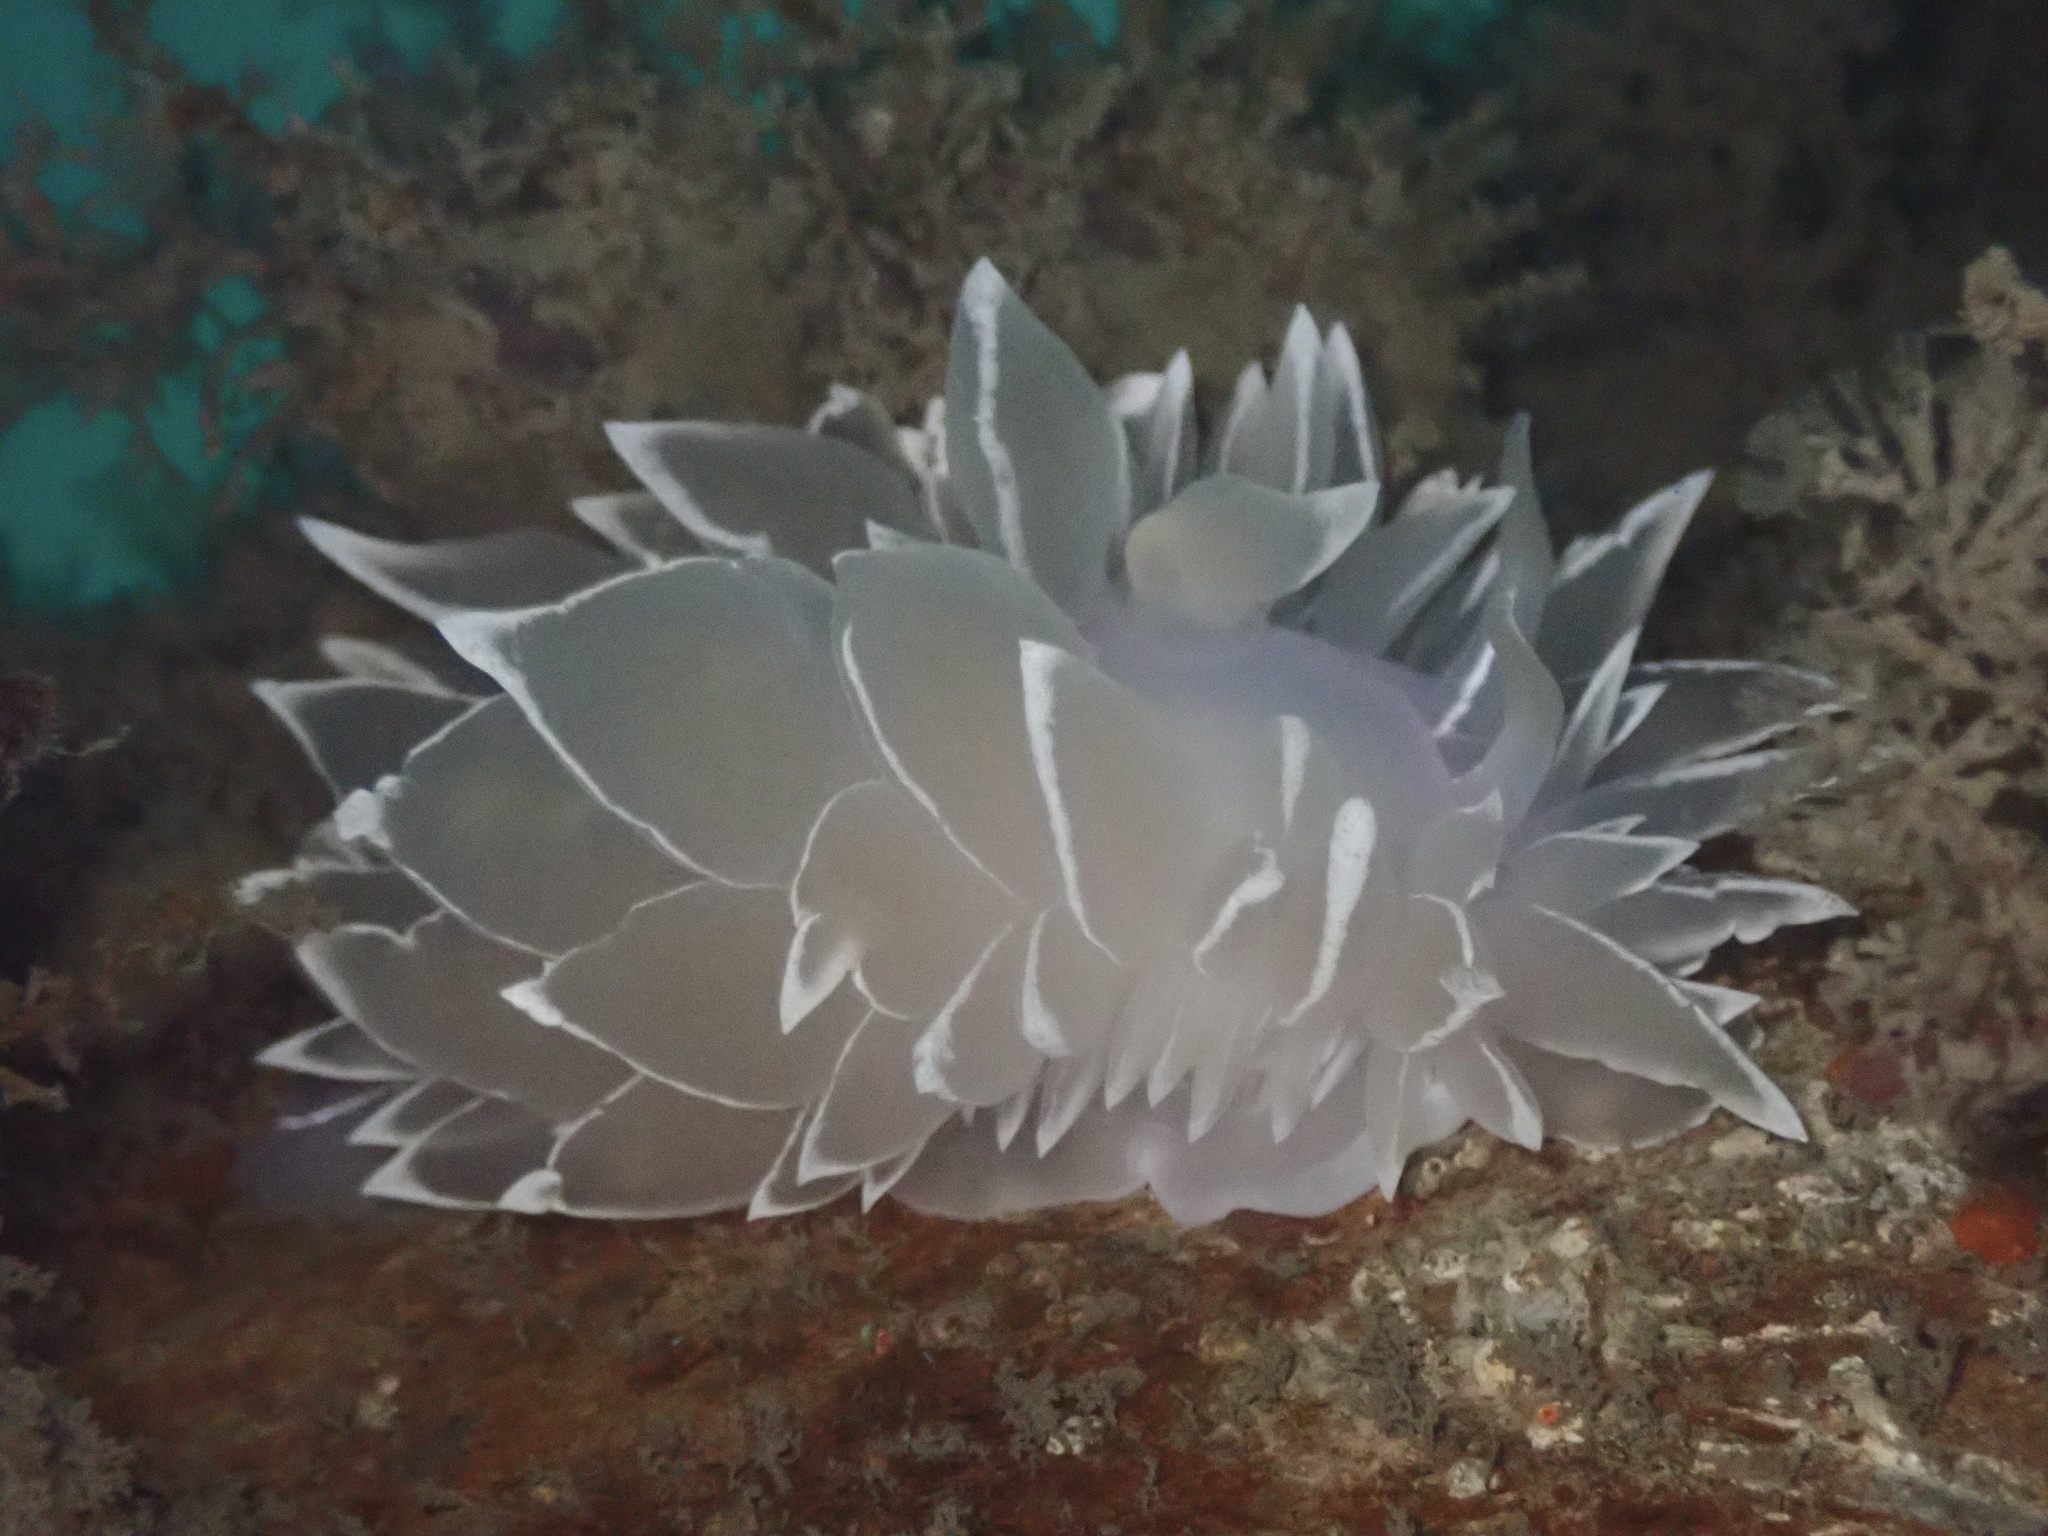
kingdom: Animalia
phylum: Mollusca
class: Gastropoda
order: Nudibranchia
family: Dironidae
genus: Dirona
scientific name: Dirona albolineata
